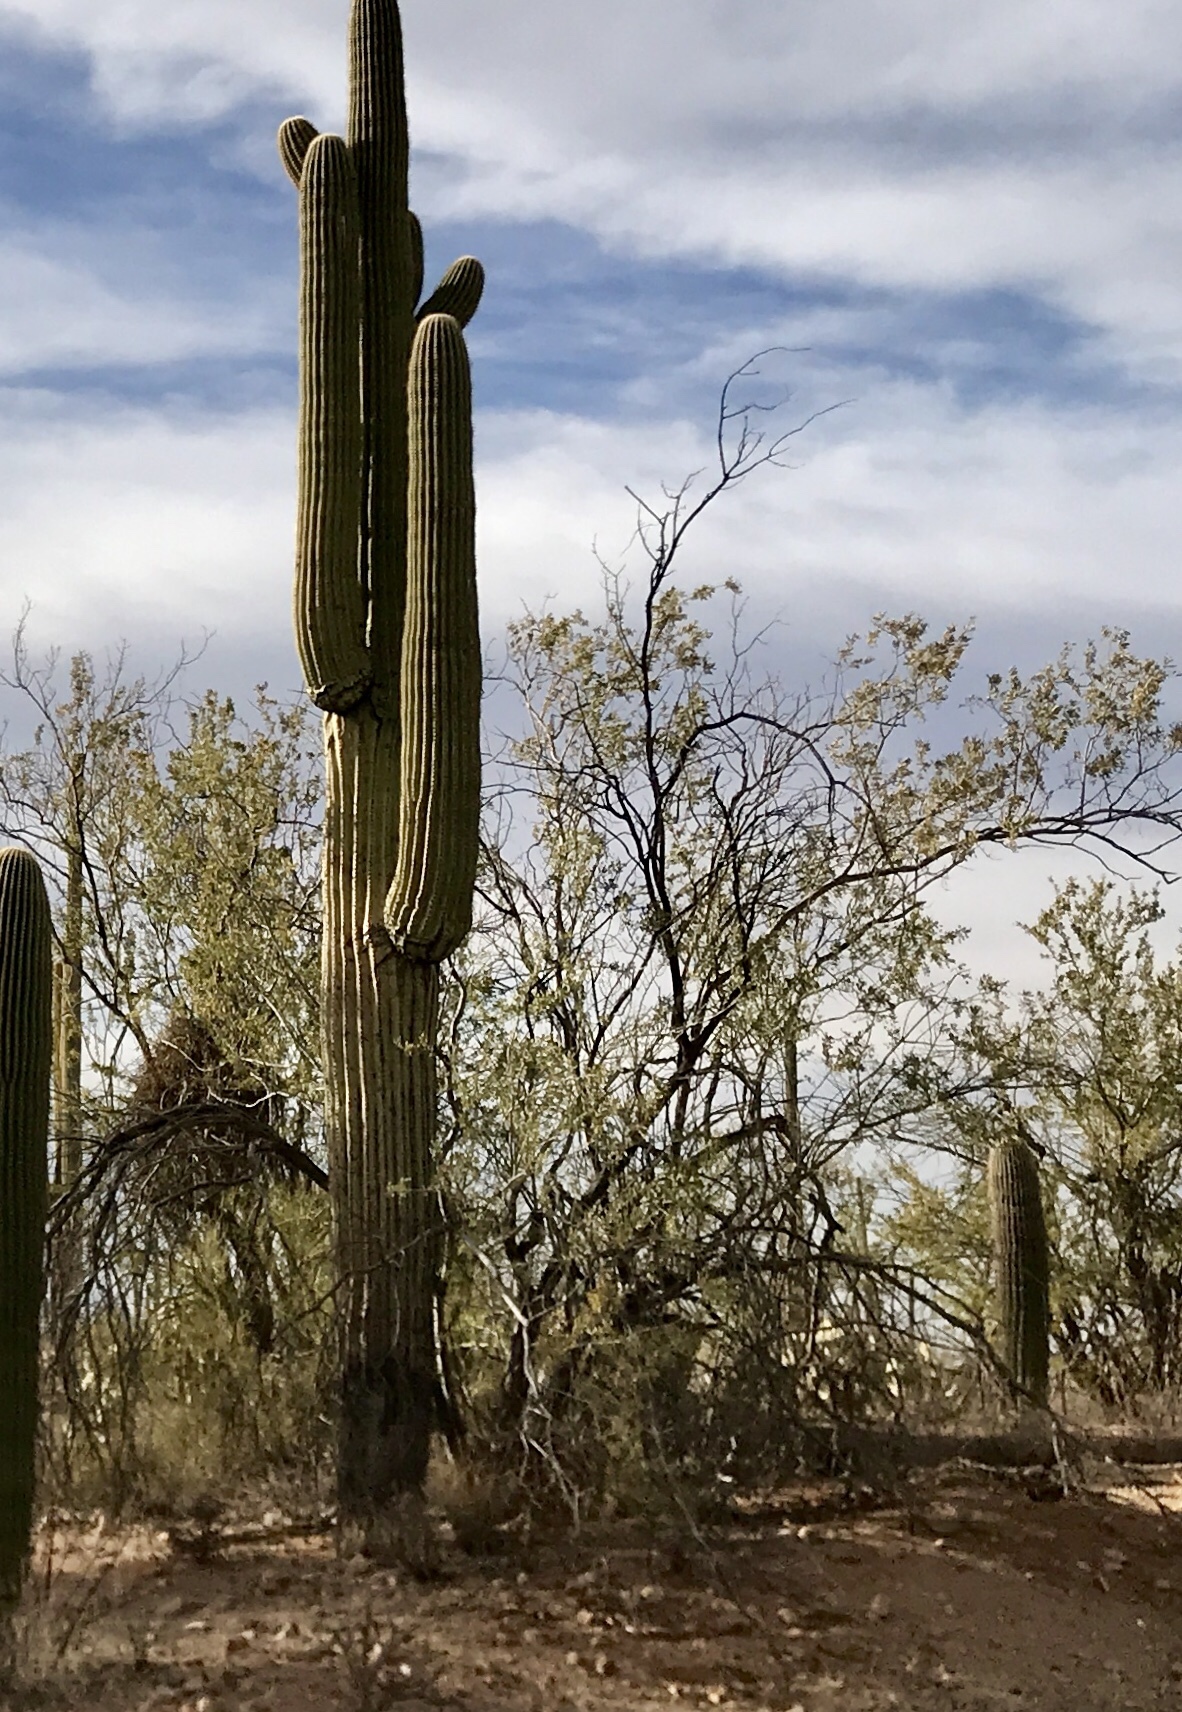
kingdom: Plantae
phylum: Tracheophyta
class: Magnoliopsida
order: Fabales
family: Fabaceae
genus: Olneya
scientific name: Olneya tesota
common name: Desert ironwood
